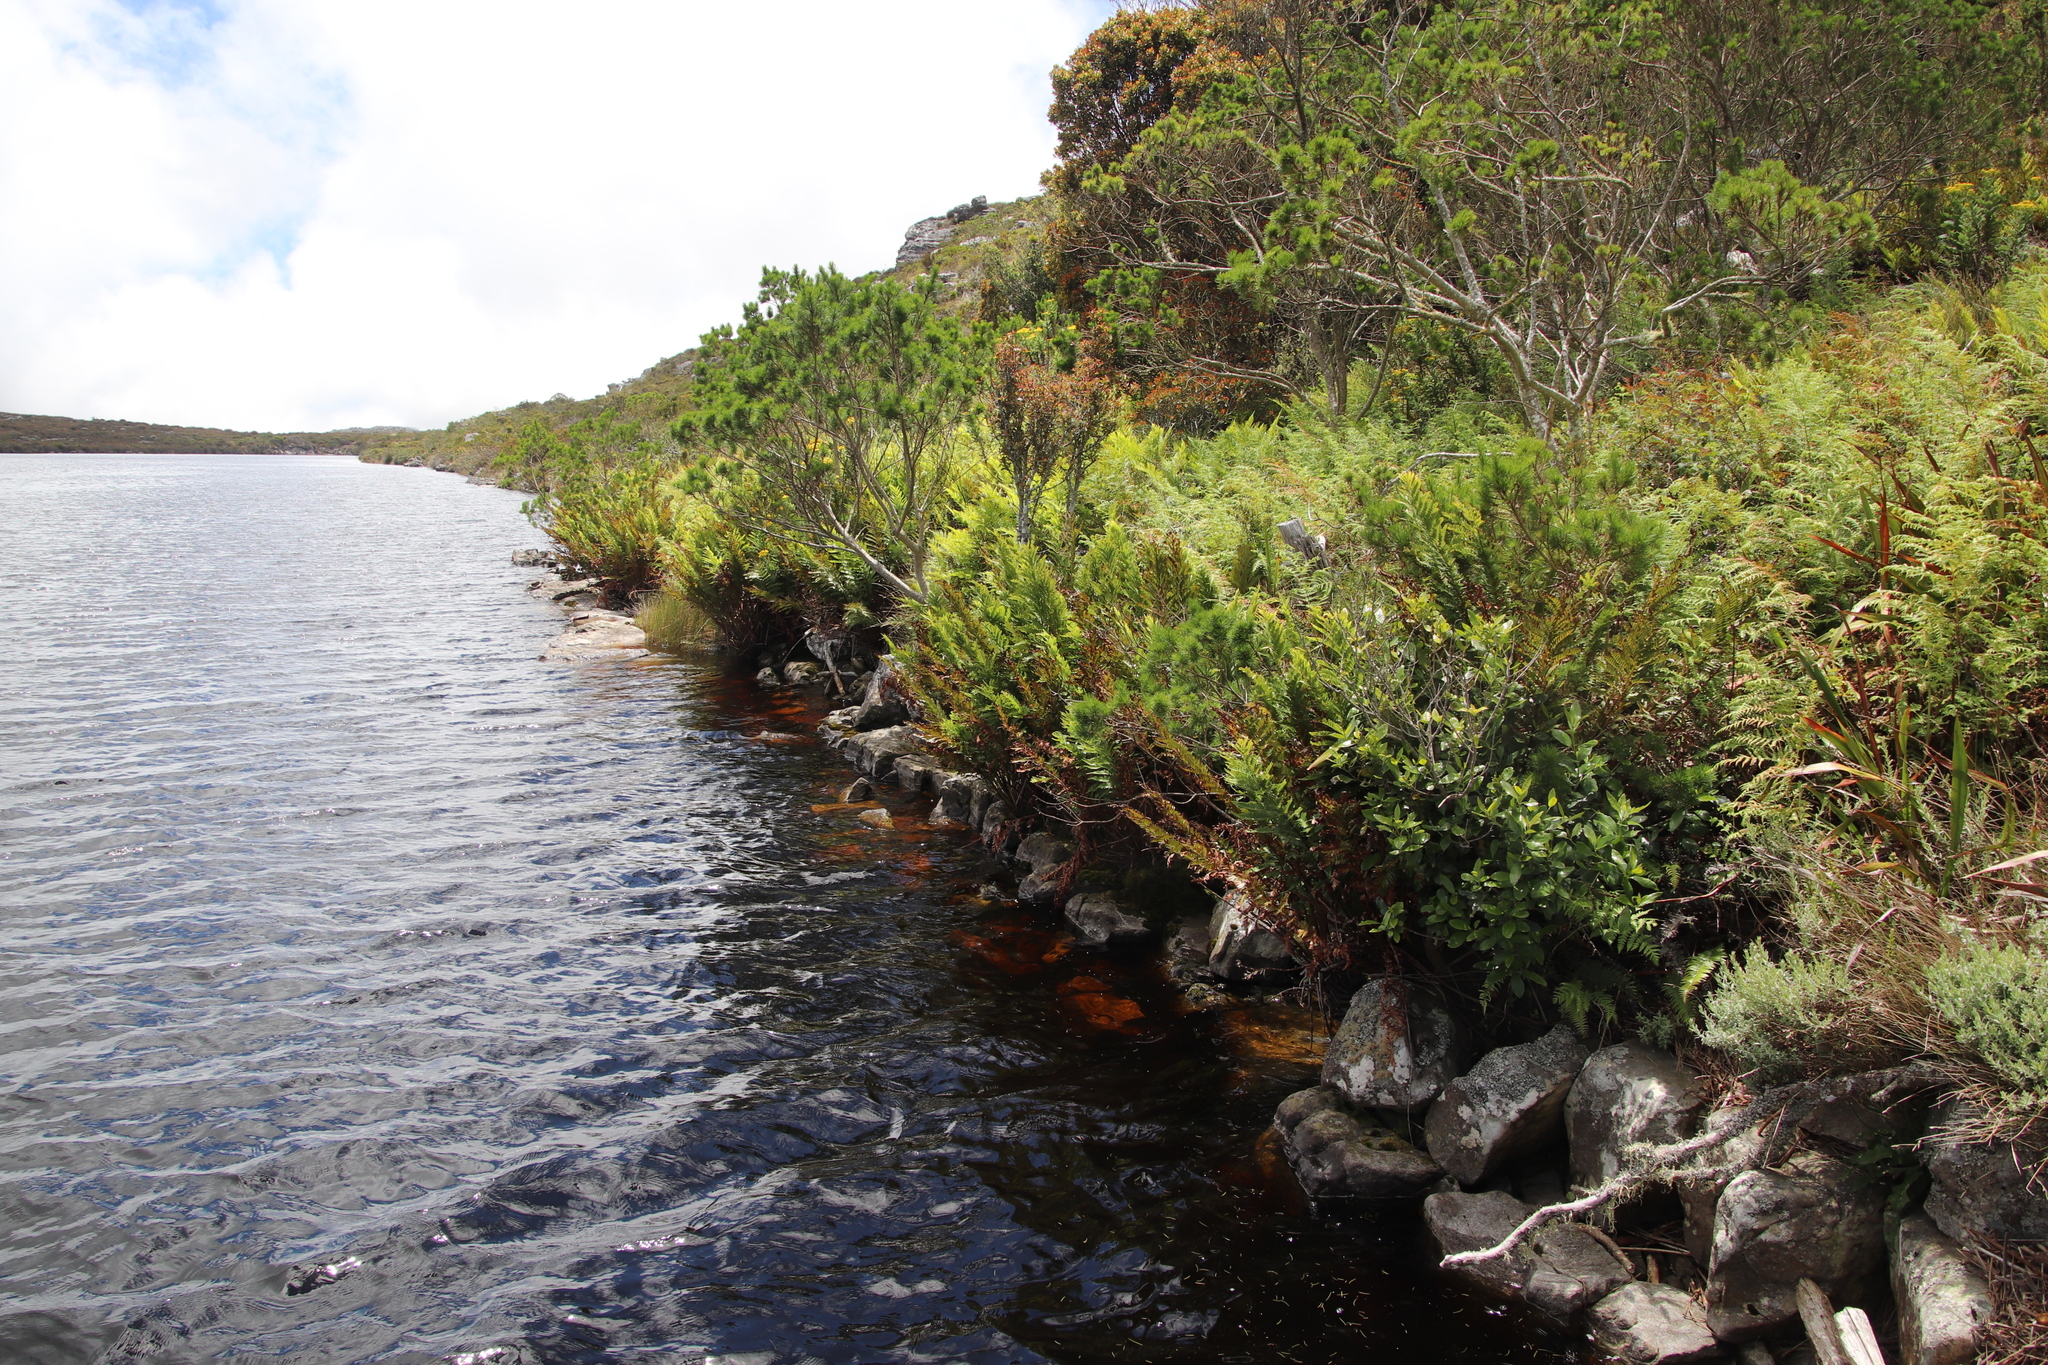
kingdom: Plantae
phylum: Tracheophyta
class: Polypodiopsida
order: Osmundales
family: Osmundaceae
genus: Todea
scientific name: Todea barbara
